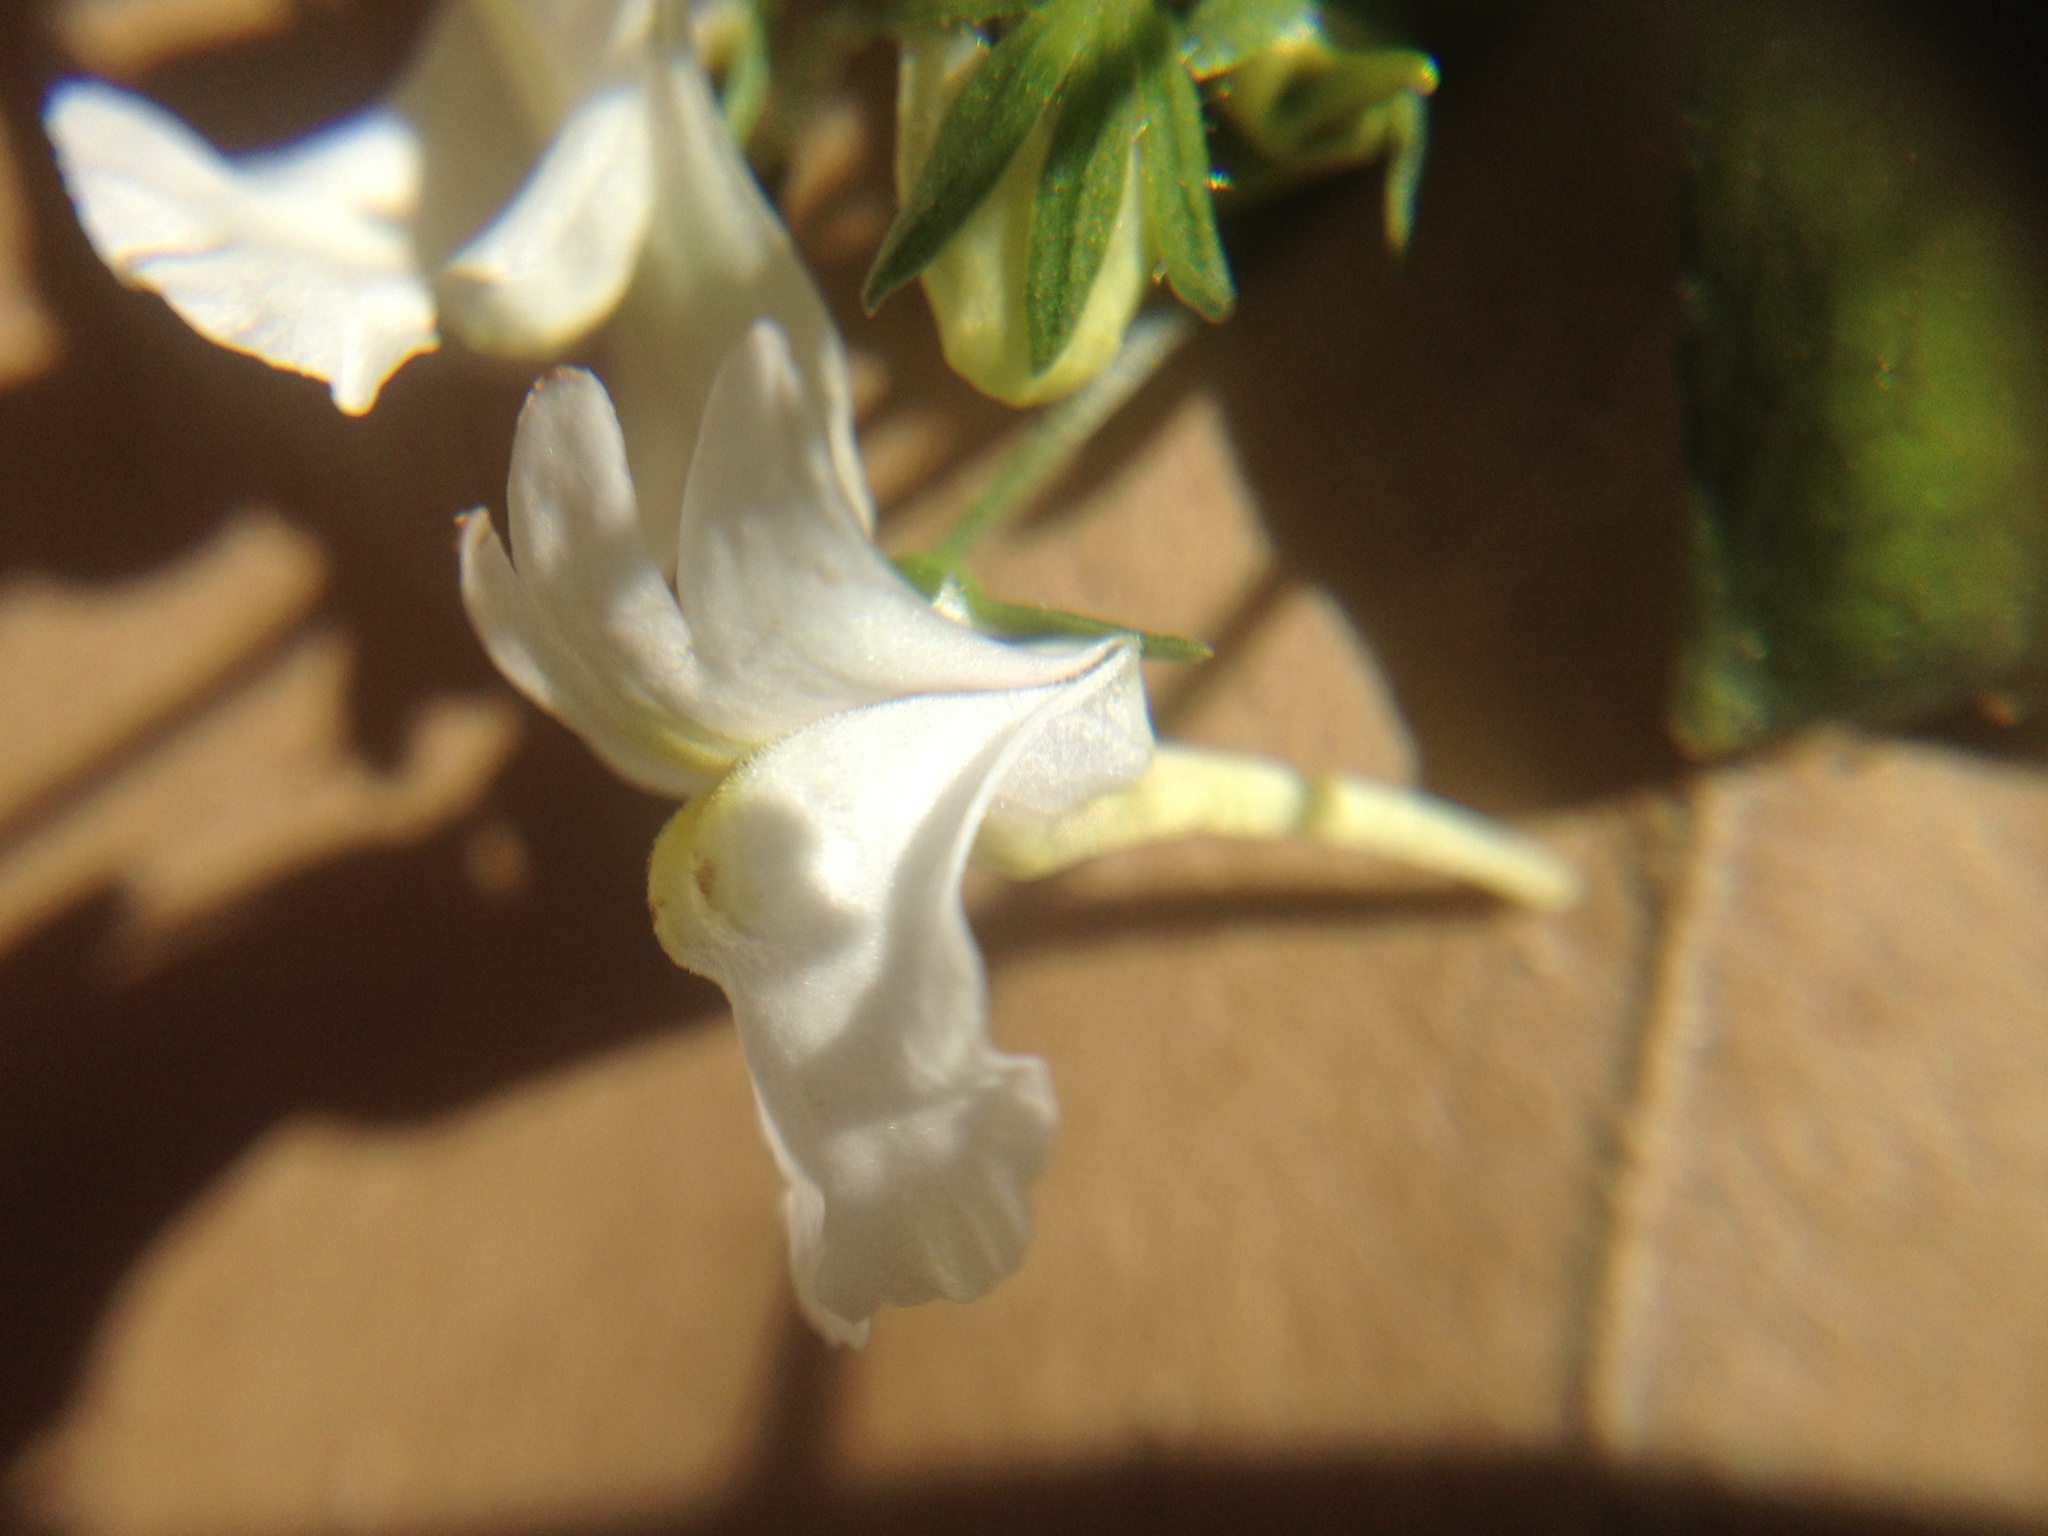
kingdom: Plantae
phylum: Tracheophyta
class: Magnoliopsida
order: Lamiales
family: Scrophulariaceae
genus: Nemesia
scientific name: Nemesia floribunda
